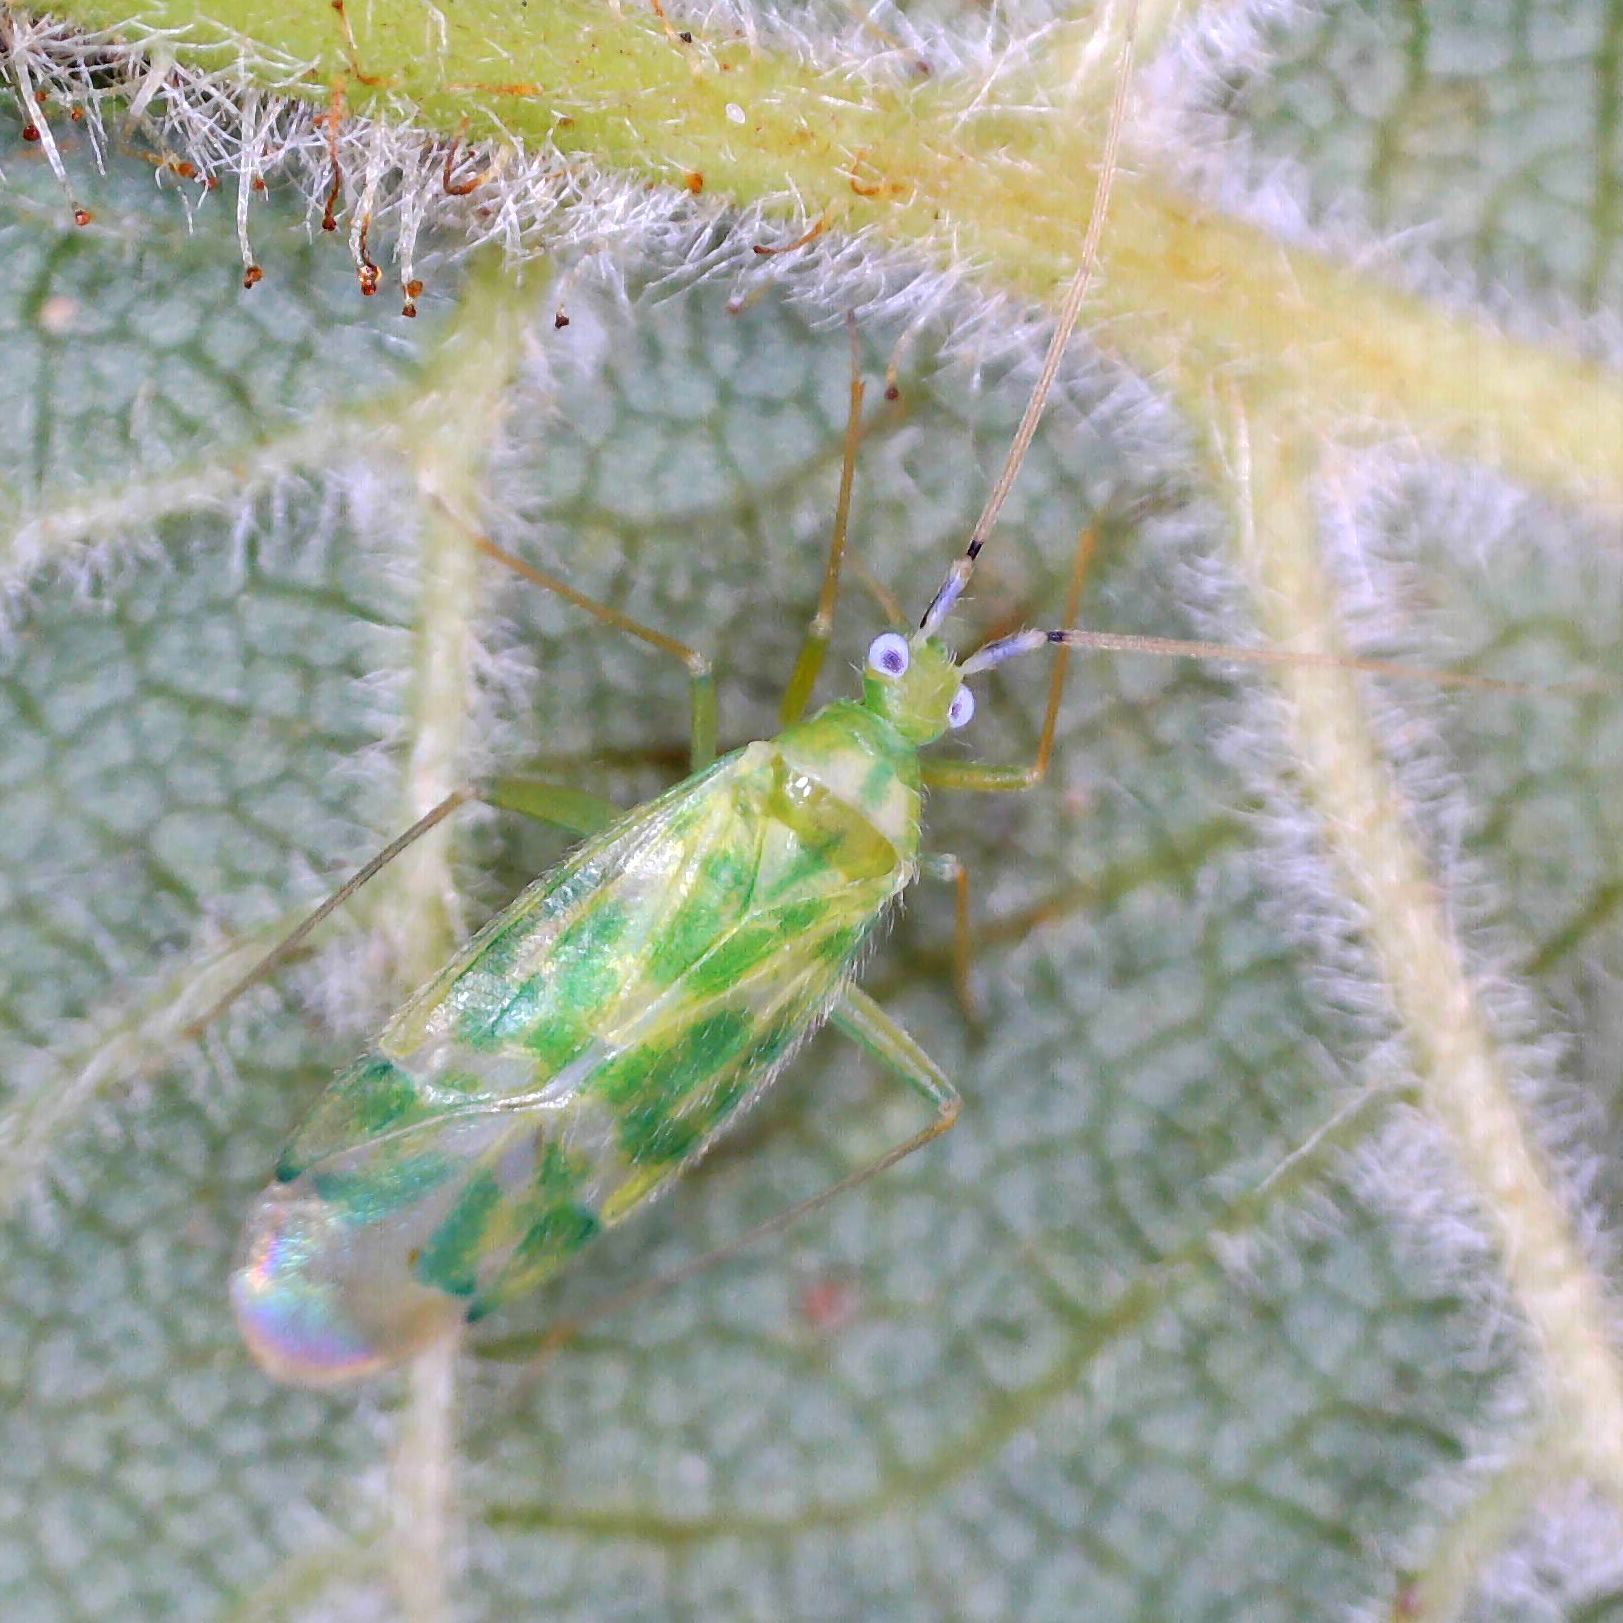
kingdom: Animalia
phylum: Arthropoda
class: Insecta
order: Hemiptera
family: Miridae
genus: Malacocoris
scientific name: Malacocoris chlorizans
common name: Plant bug
